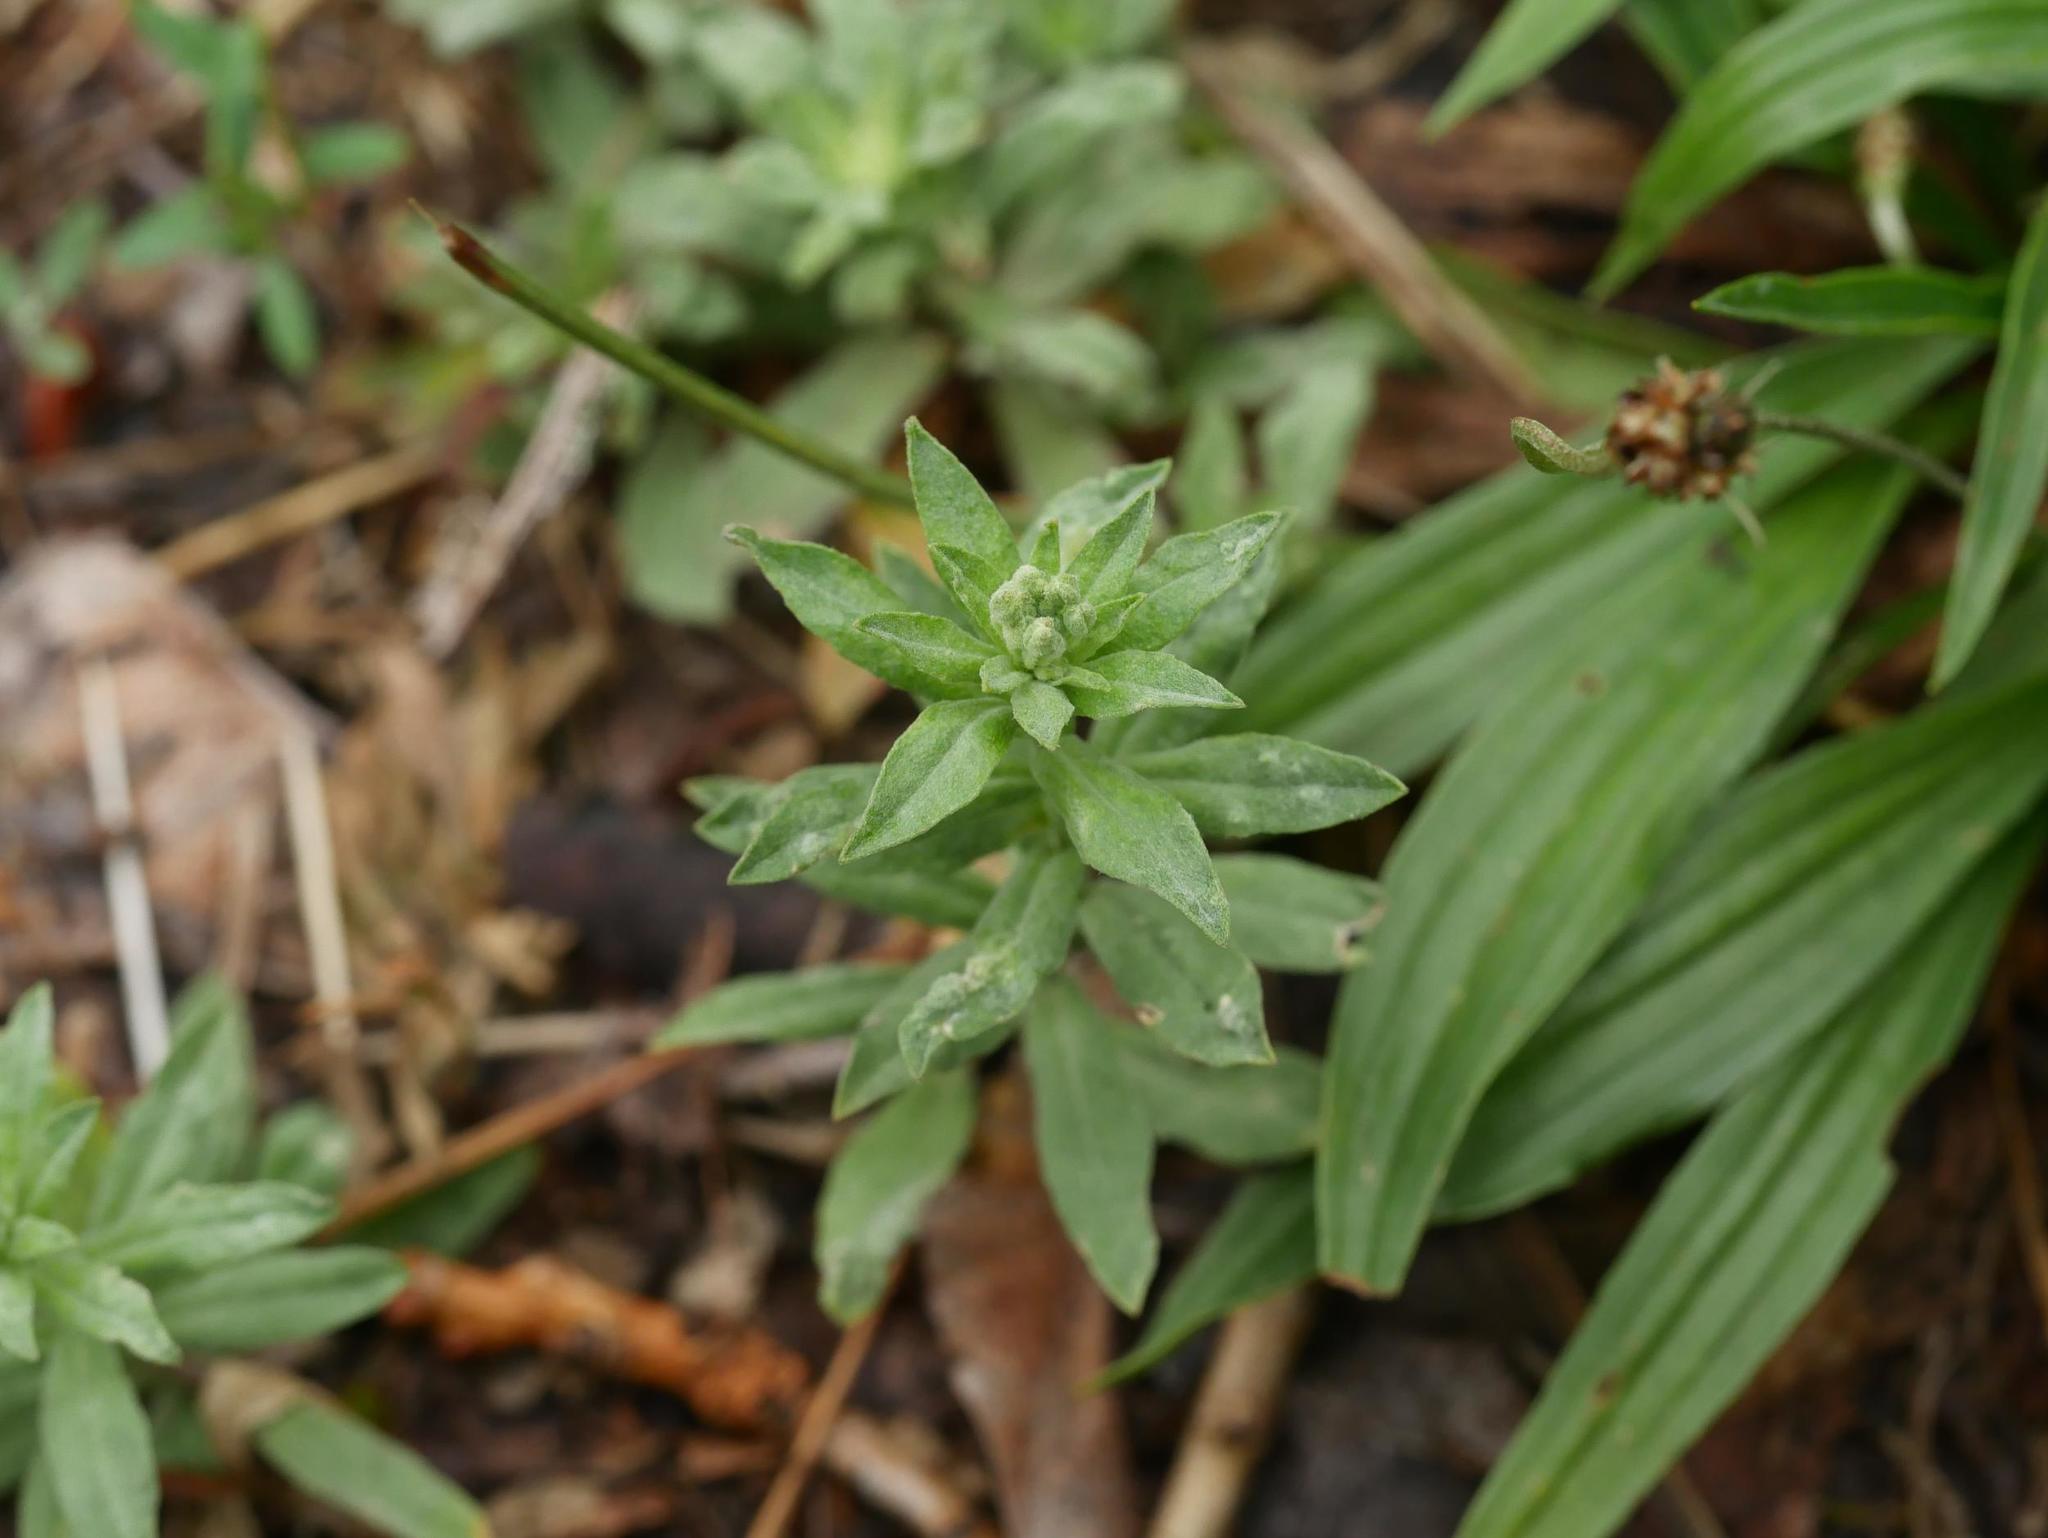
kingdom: Plantae
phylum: Tracheophyta
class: Magnoliopsida
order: Brassicales
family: Brassicaceae
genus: Berteroa
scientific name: Berteroa incana
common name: Hoary alison
